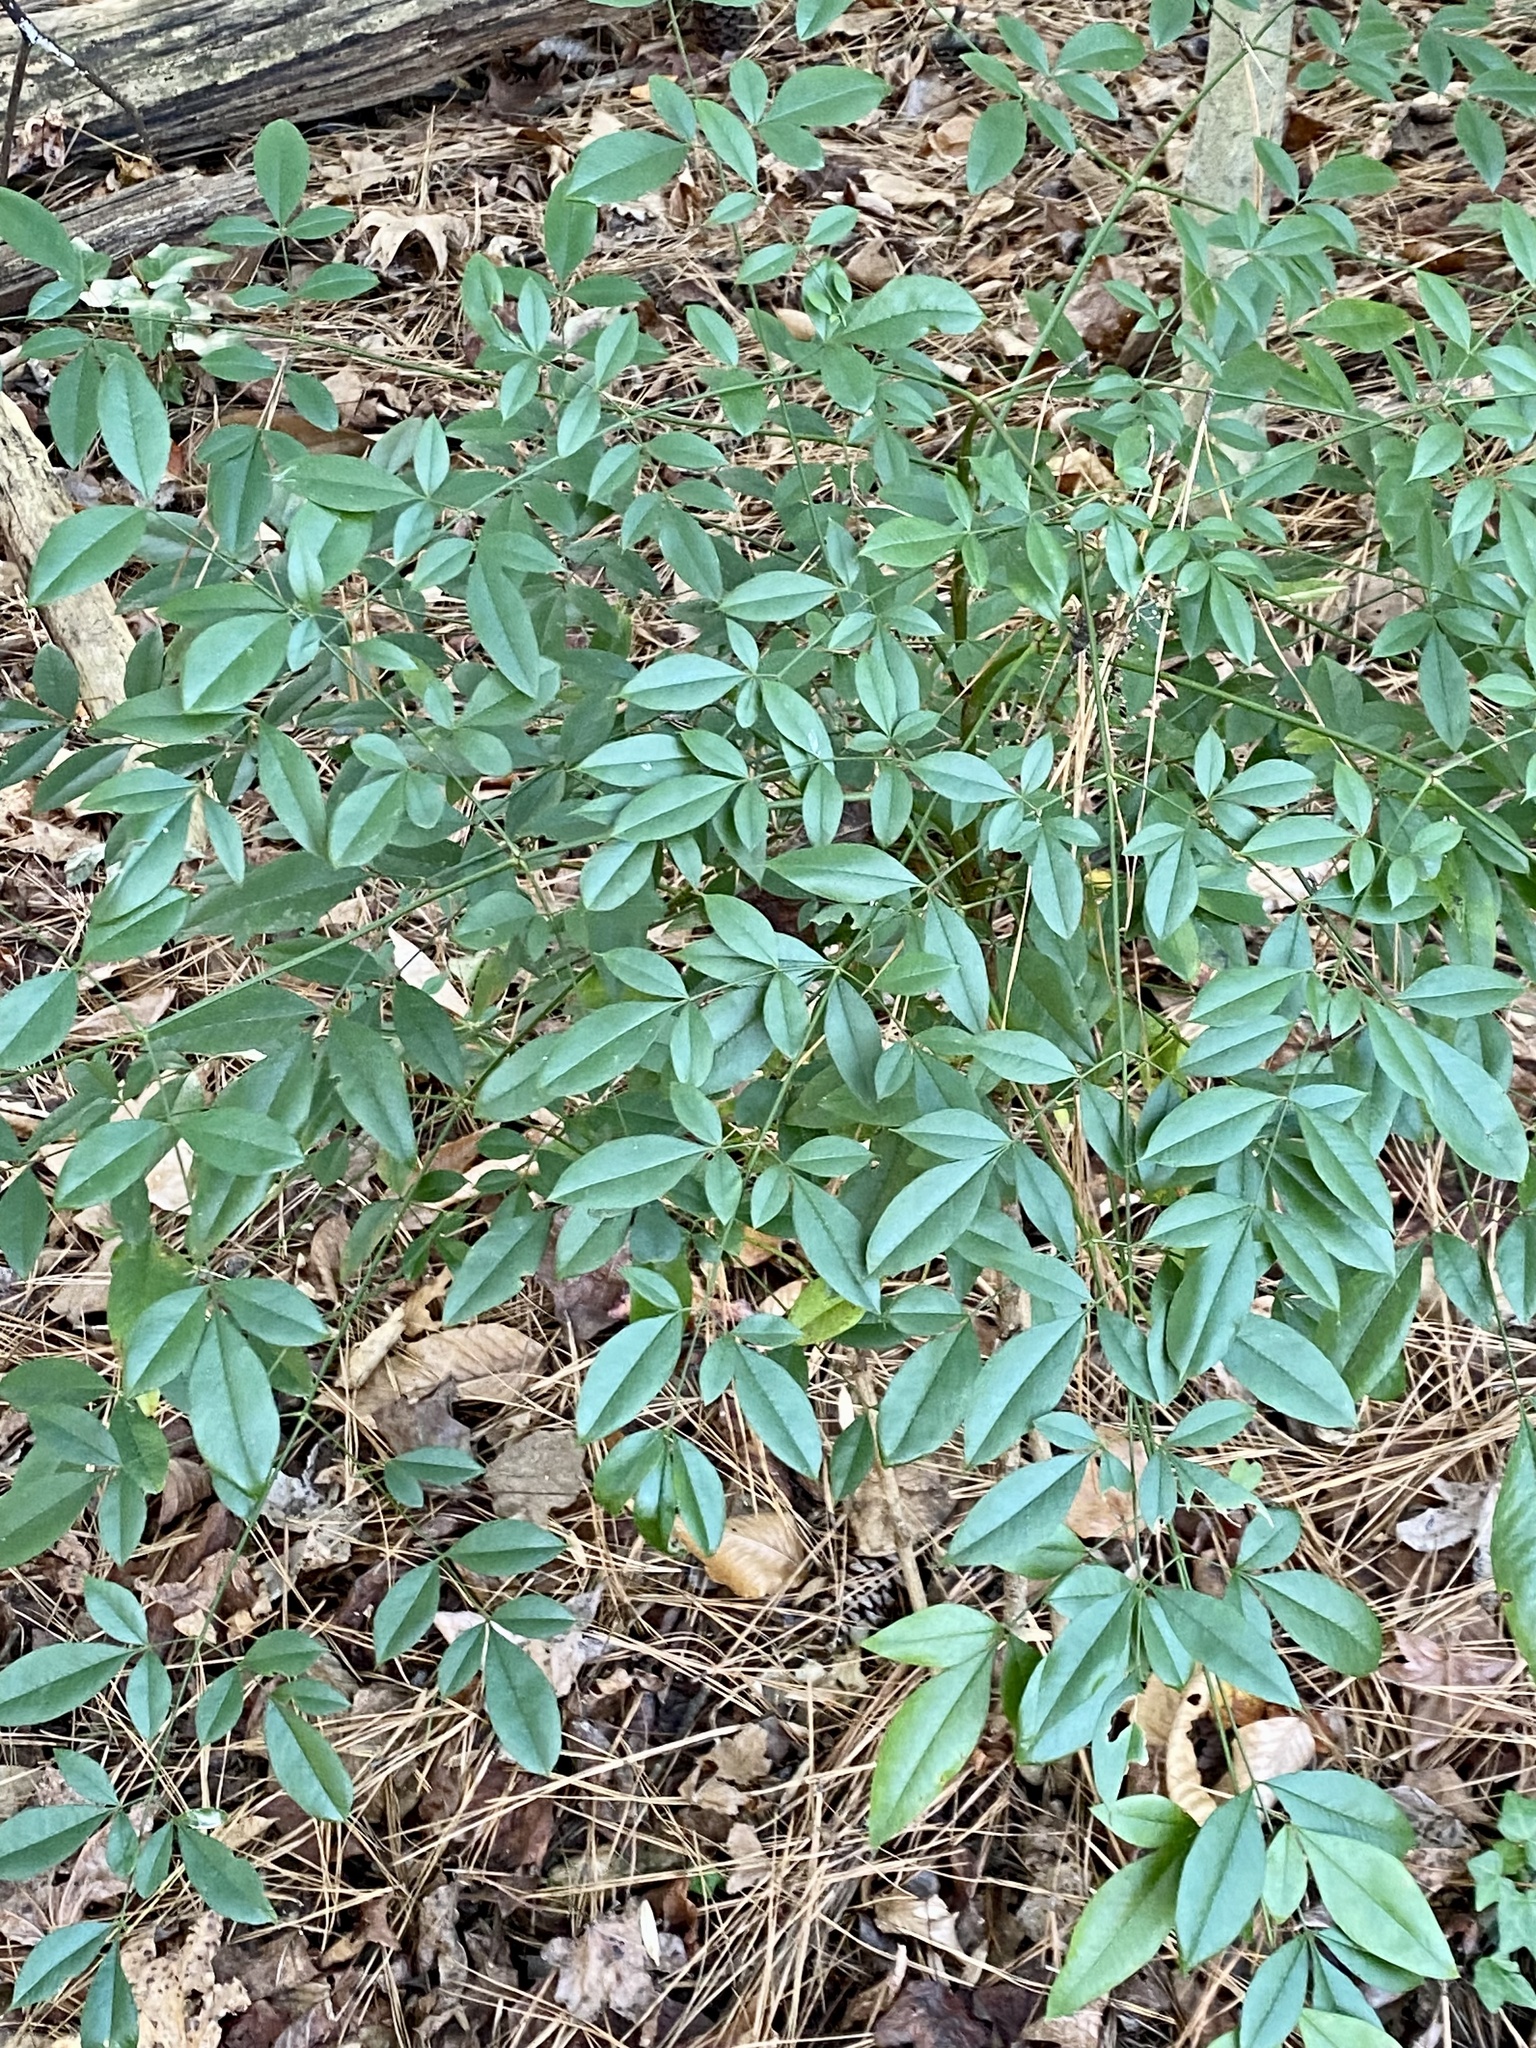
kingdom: Plantae
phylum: Tracheophyta
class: Magnoliopsida
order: Ranunculales
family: Berberidaceae
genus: Nandina
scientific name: Nandina domestica
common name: Sacred bamboo
